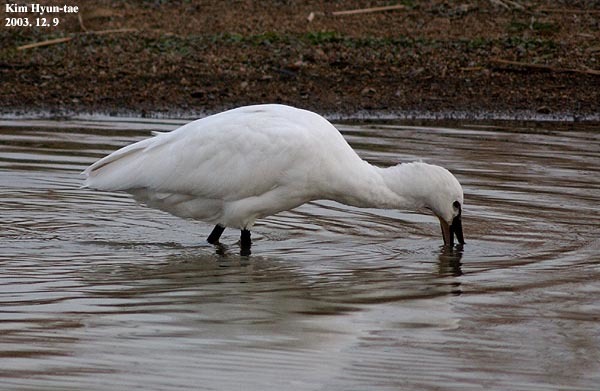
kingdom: Animalia
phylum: Chordata
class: Aves
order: Pelecaniformes
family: Threskiornithidae
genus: Platalea
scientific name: Platalea leucorodia
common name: Eurasian spoonbill
